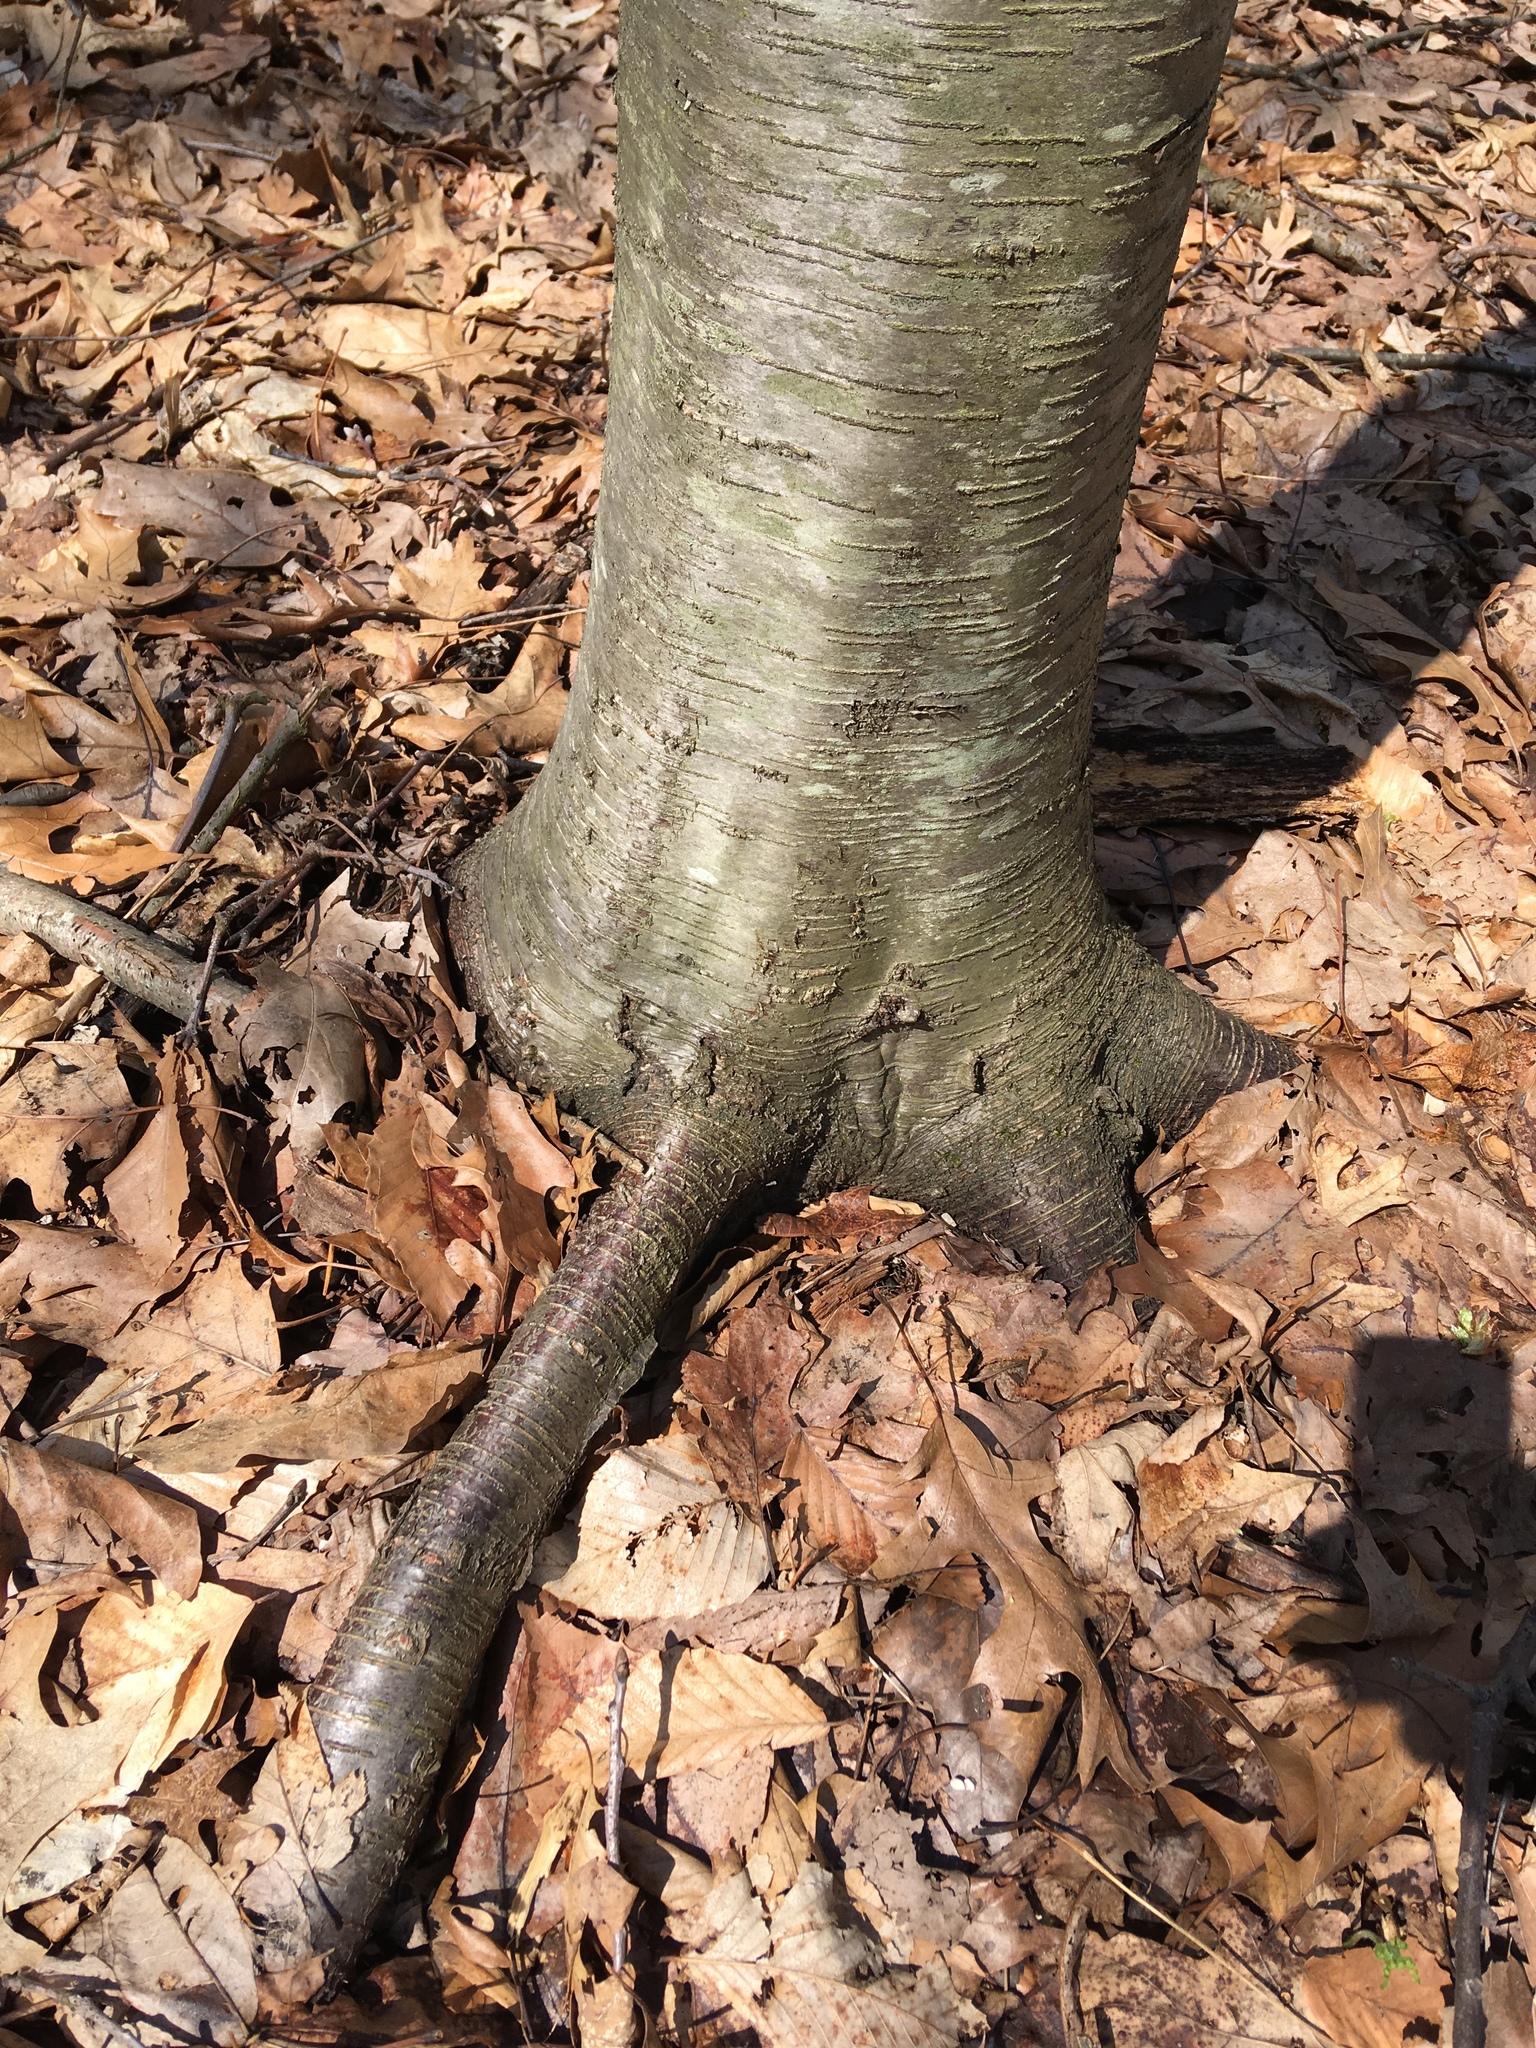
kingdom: Plantae
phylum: Tracheophyta
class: Magnoliopsida
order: Fagales
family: Betulaceae
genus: Betula
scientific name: Betula lenta
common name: Black birch
